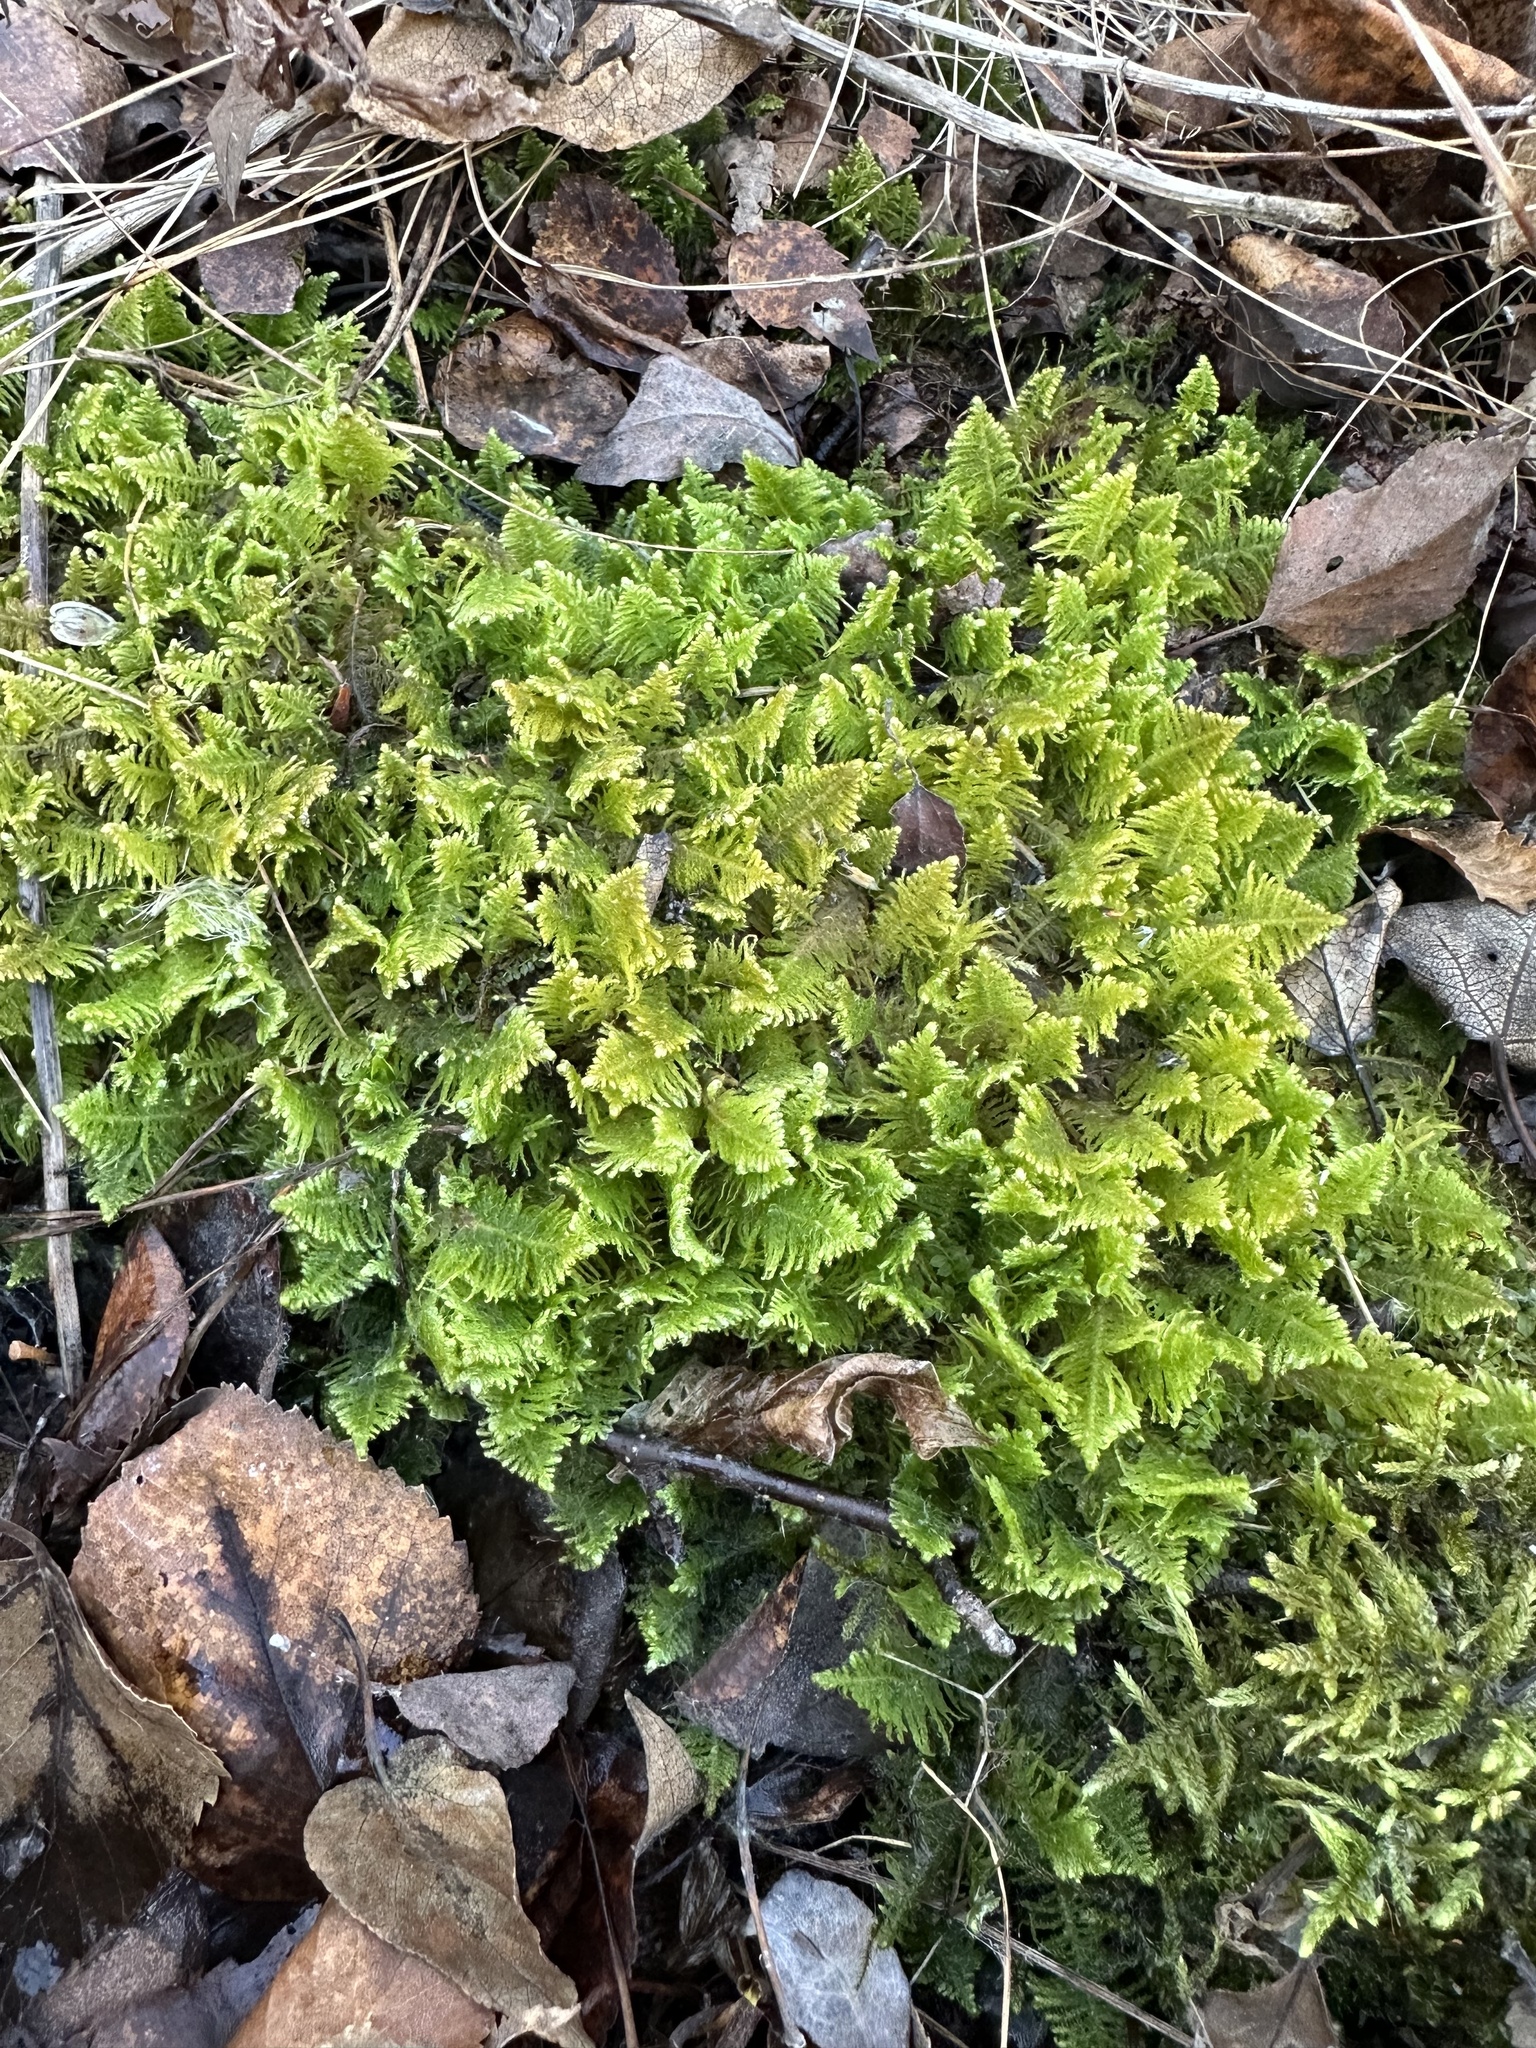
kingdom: Plantae
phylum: Bryophyta
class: Bryopsida
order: Hypnales
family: Pylaisiaceae
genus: Ptilium
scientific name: Ptilium crista-castrensis
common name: Knight's plume moss
